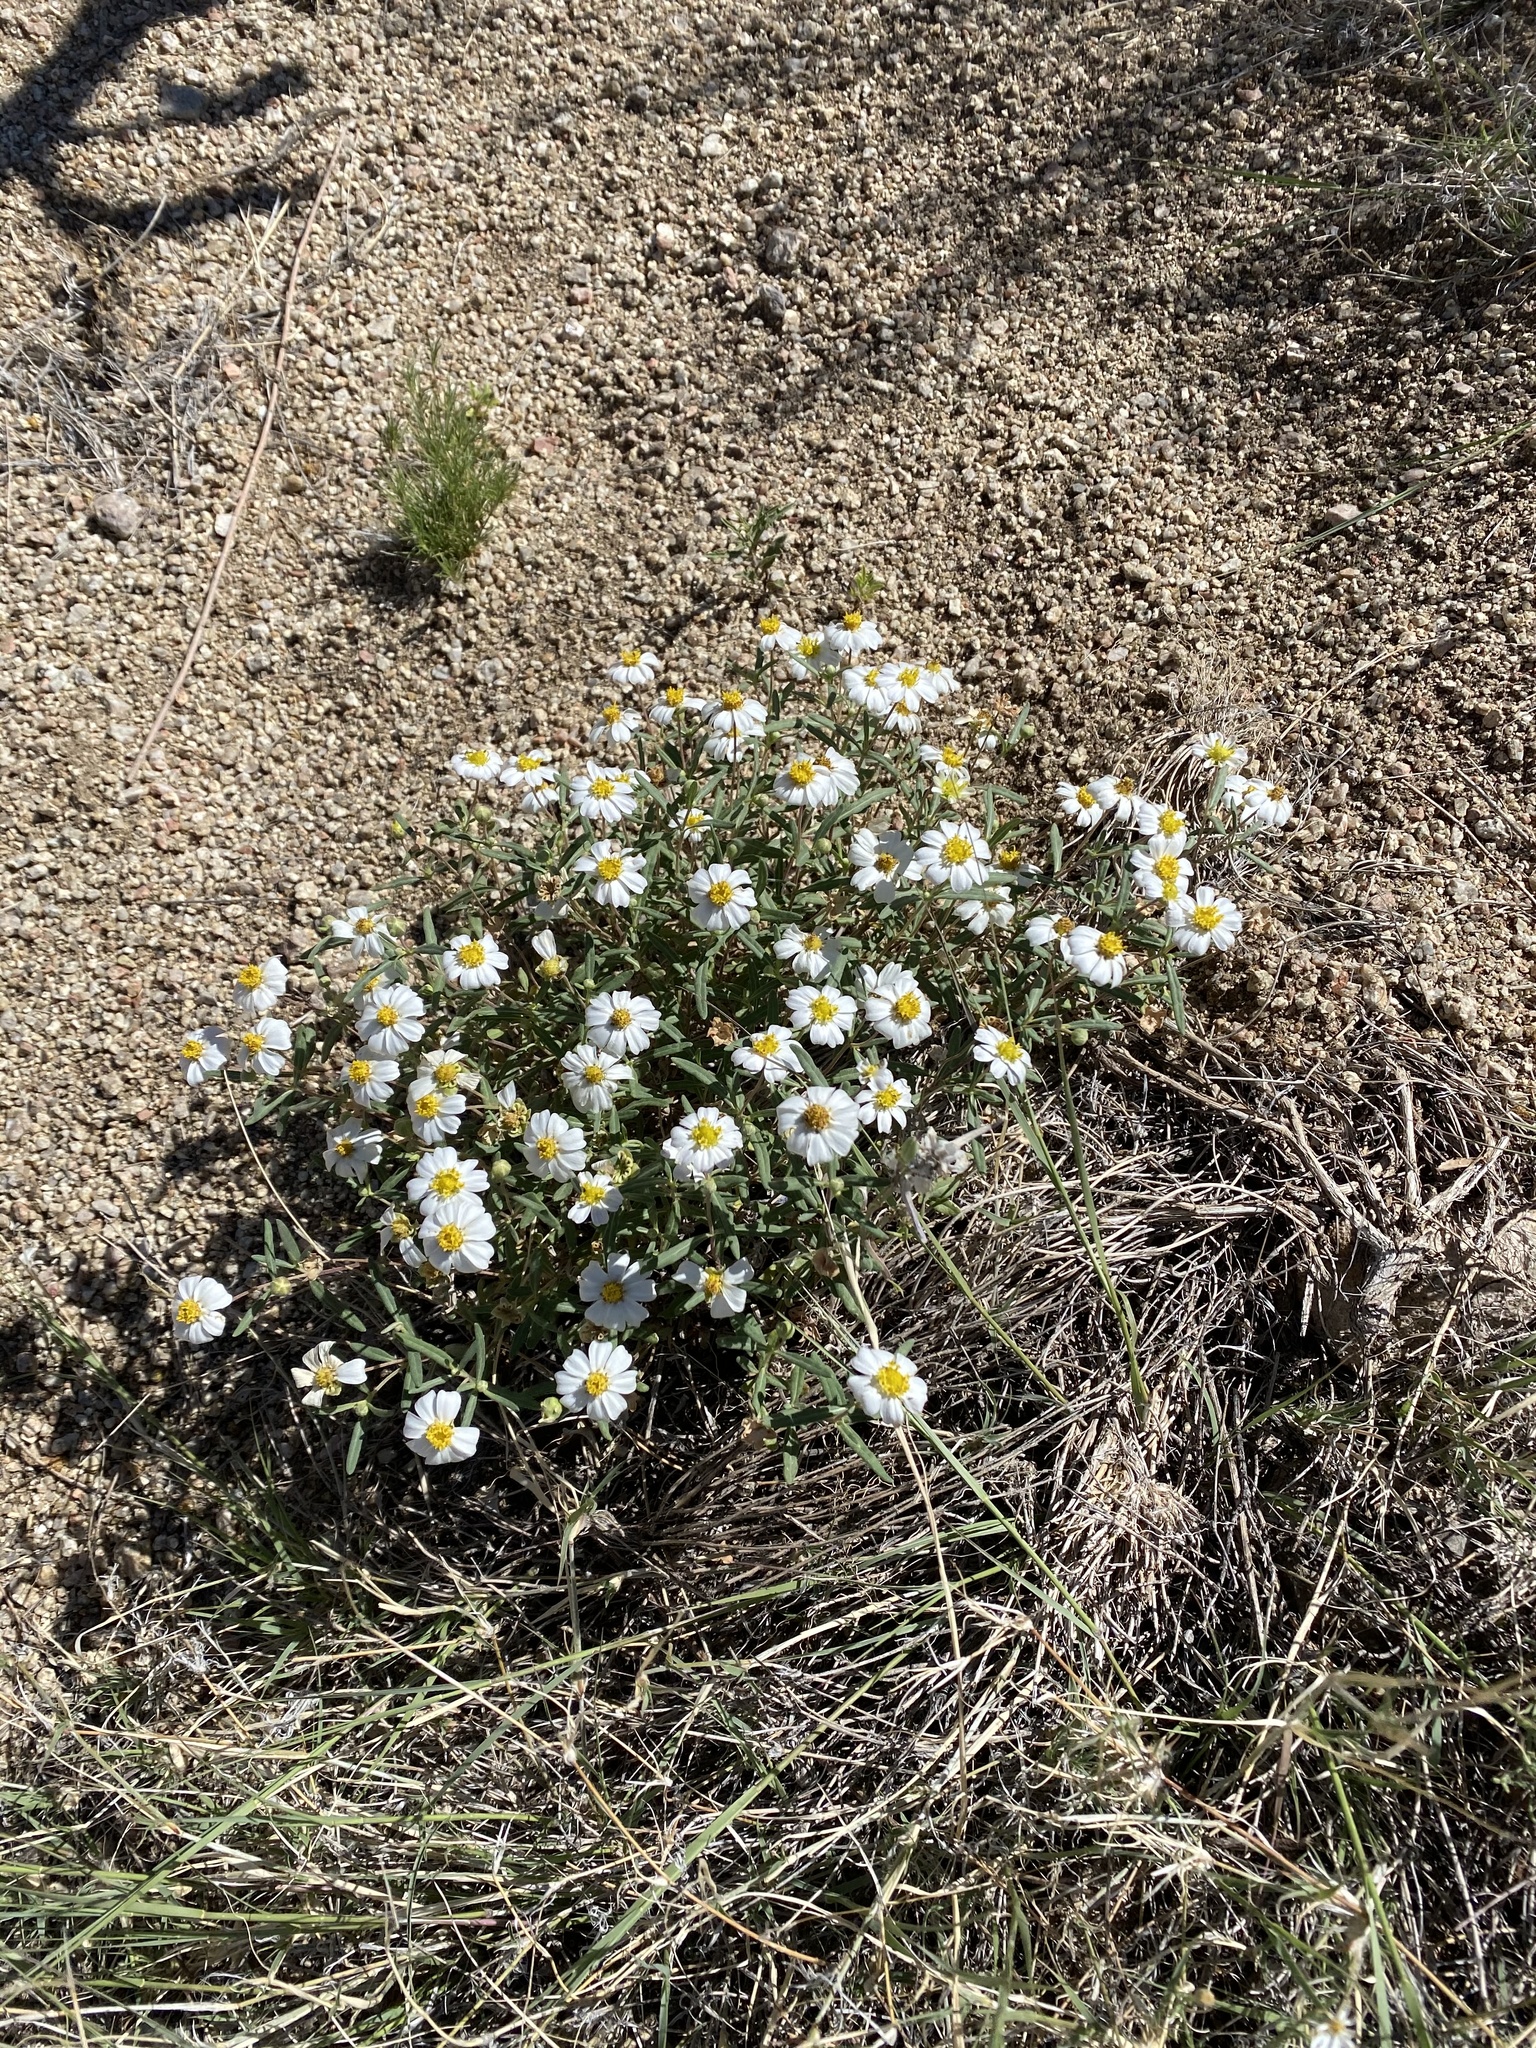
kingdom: Plantae
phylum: Tracheophyta
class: Magnoliopsida
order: Asterales
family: Asteraceae
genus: Melampodium
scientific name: Melampodium leucanthum
